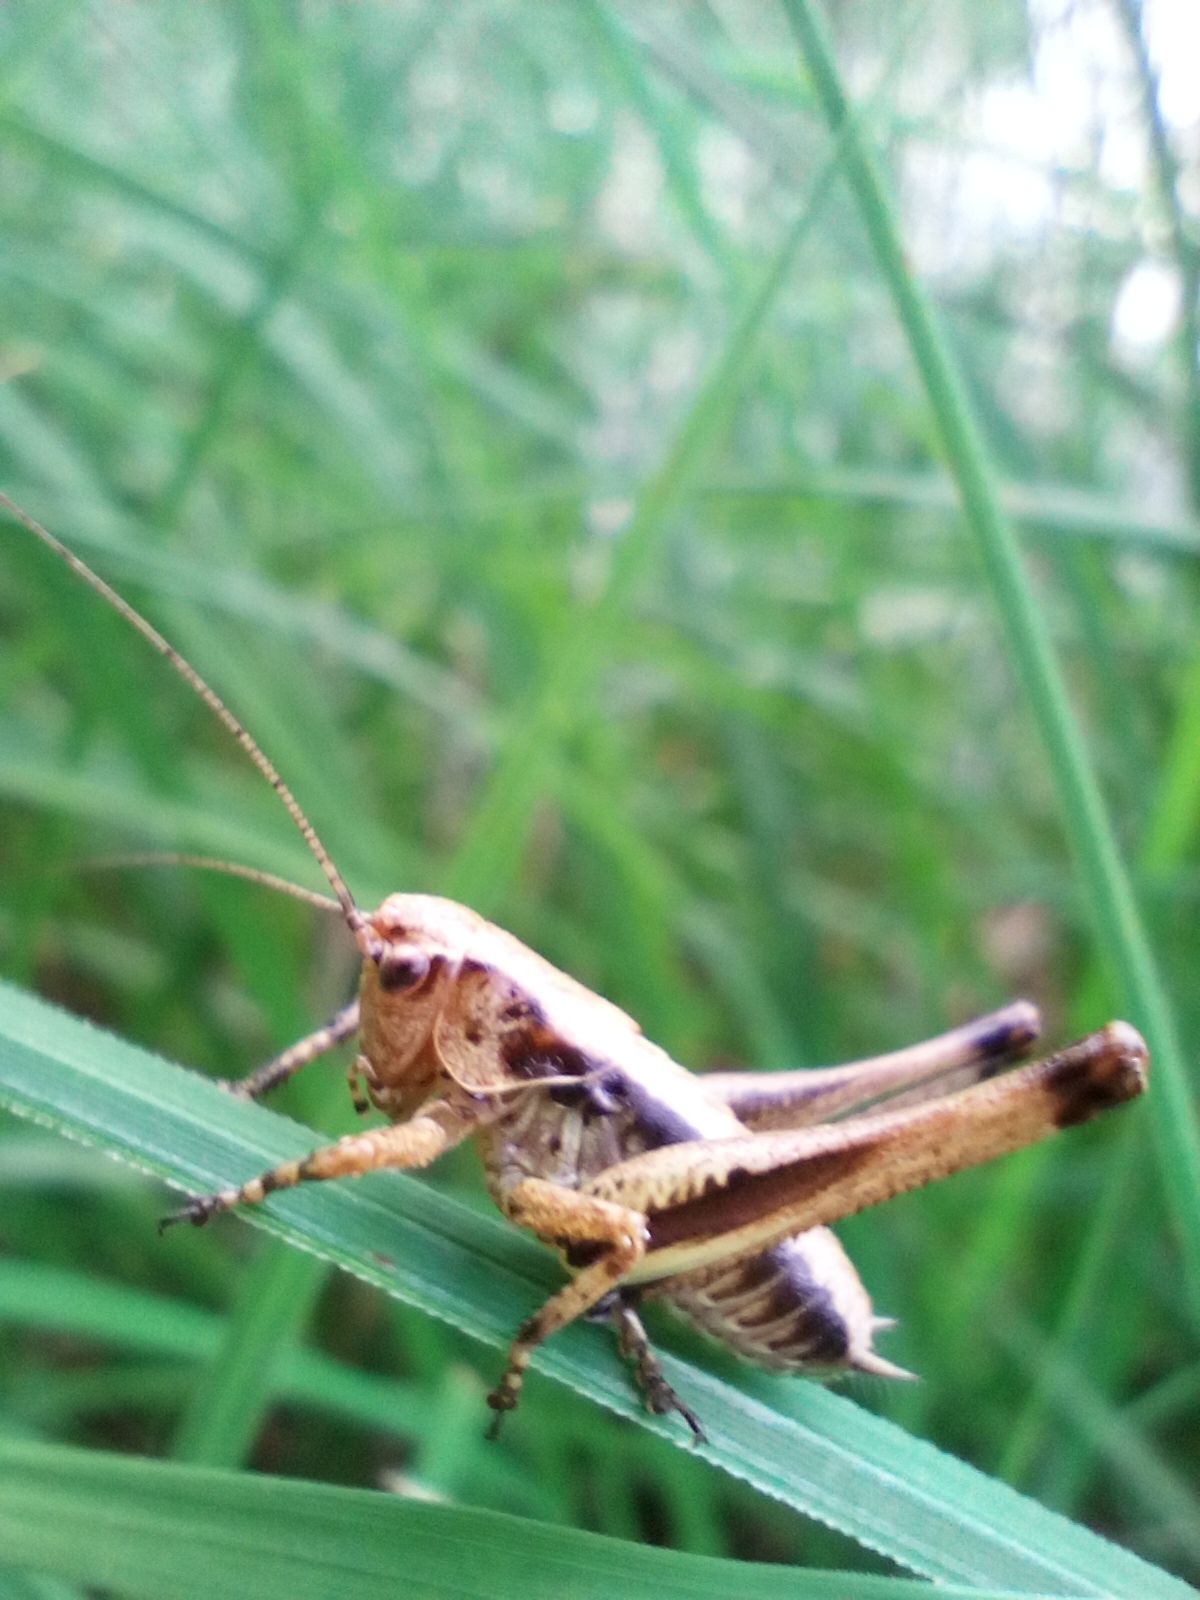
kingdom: Animalia
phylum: Arthropoda
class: Insecta
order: Orthoptera
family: Tettigoniidae
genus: Pholidoptera
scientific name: Pholidoptera griseoaptera
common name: Dark bush-cricket
